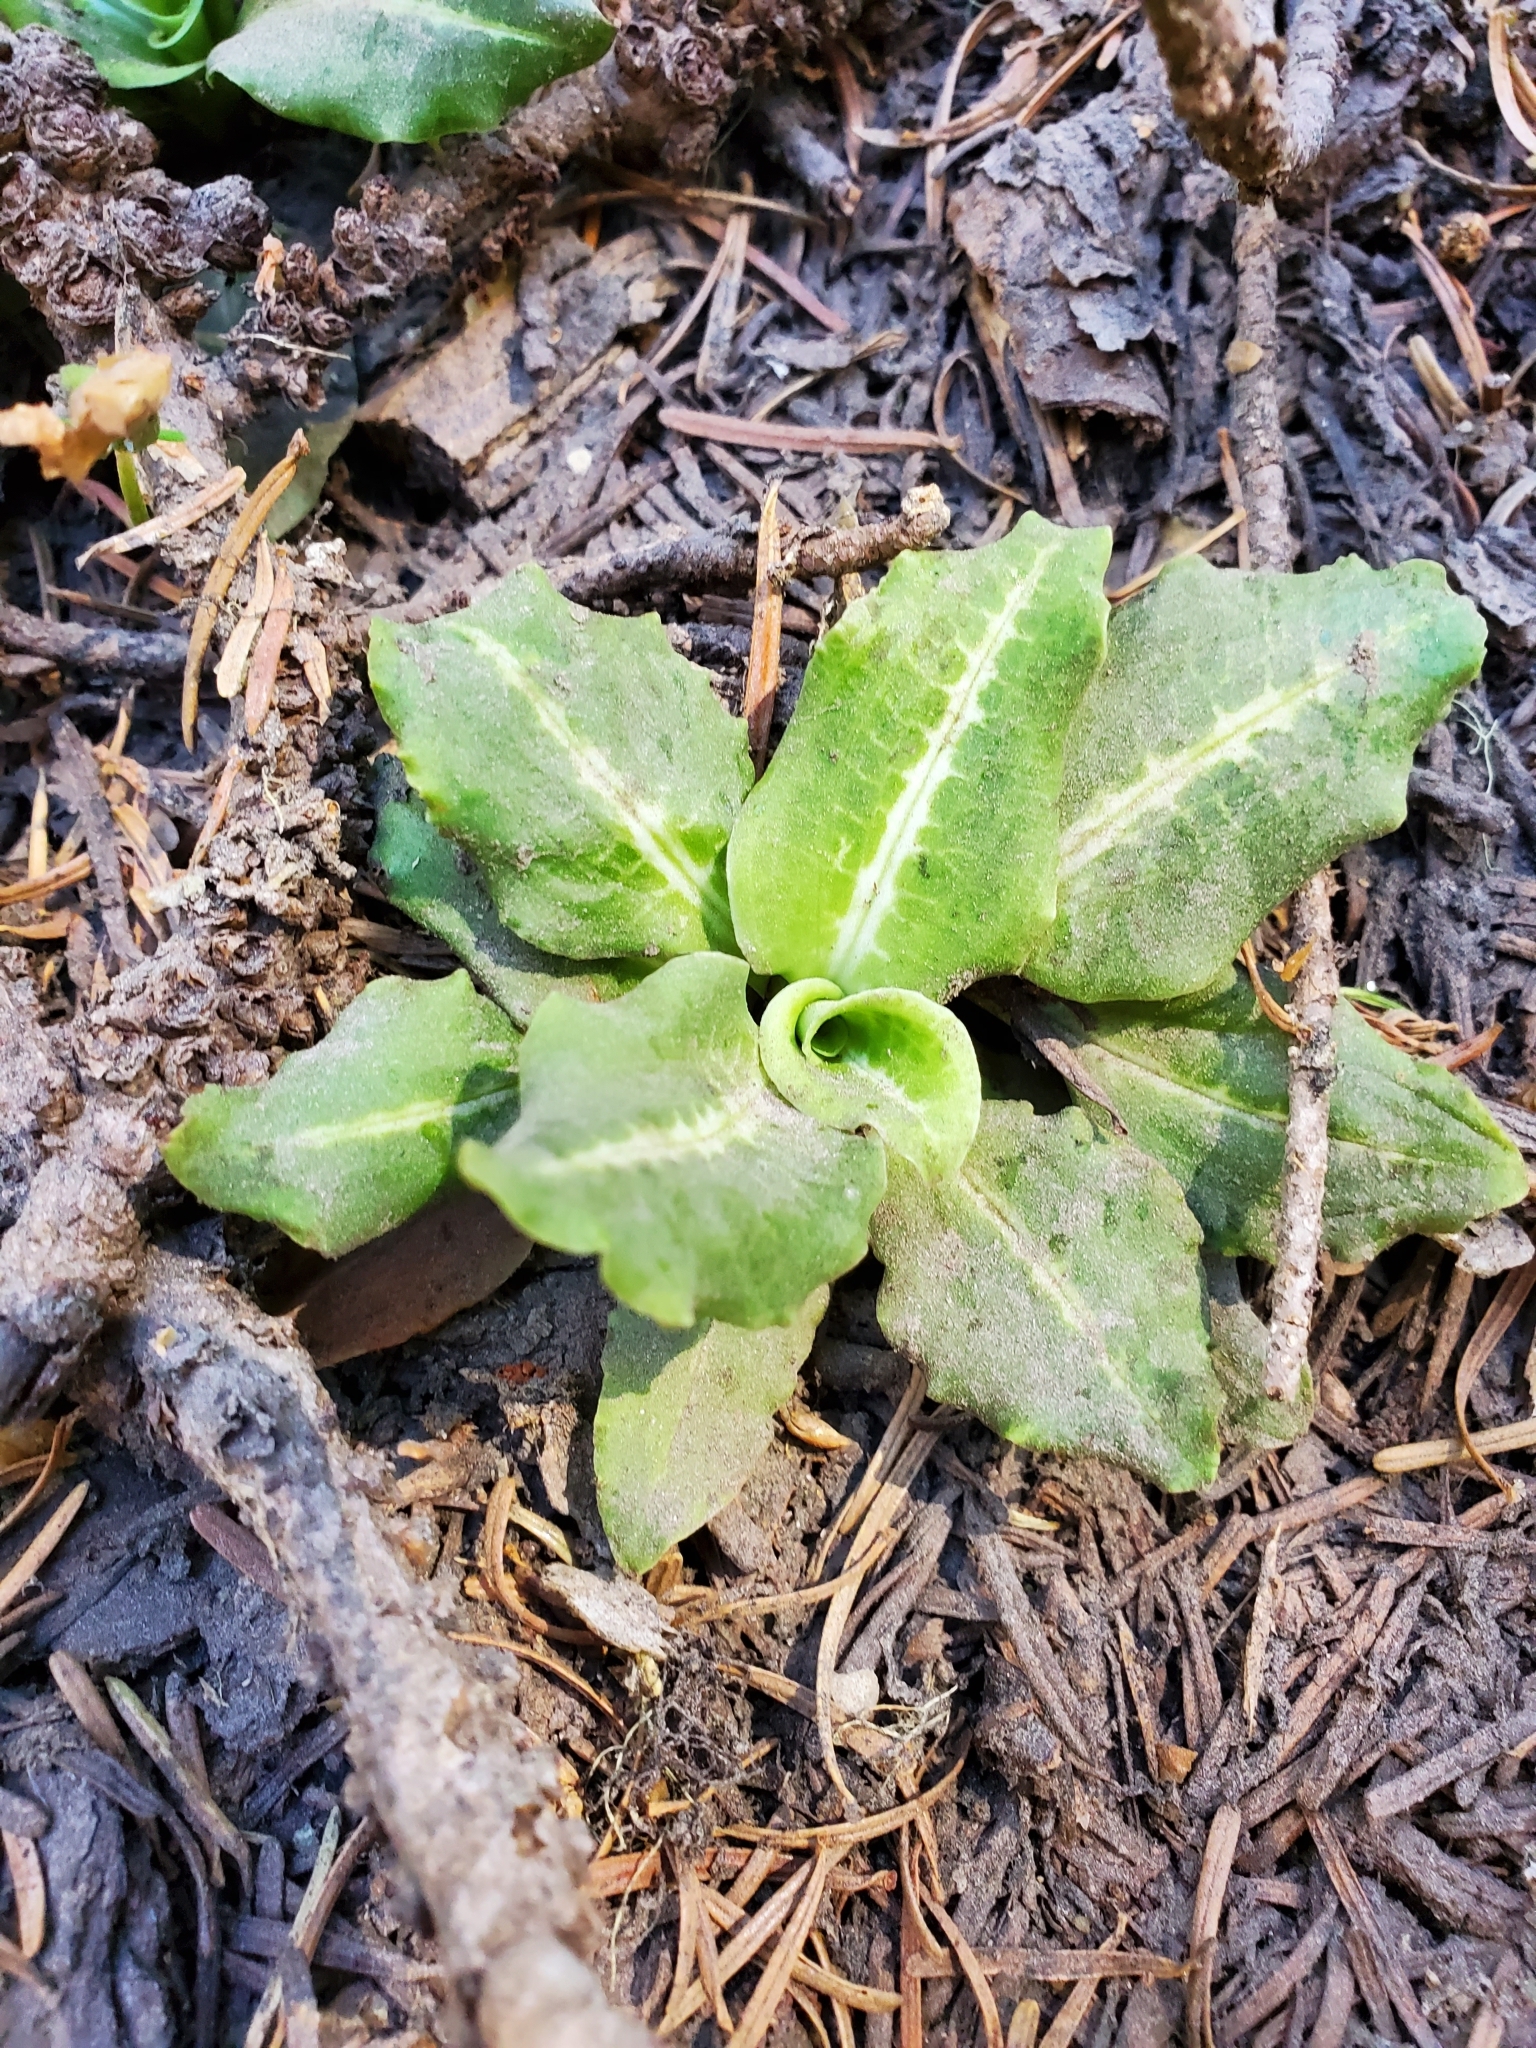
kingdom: Plantae
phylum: Tracheophyta
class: Liliopsida
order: Asparagales
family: Orchidaceae
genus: Goodyera
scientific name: Goodyera oblongifolia
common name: Giant rattlesnake-plantain
